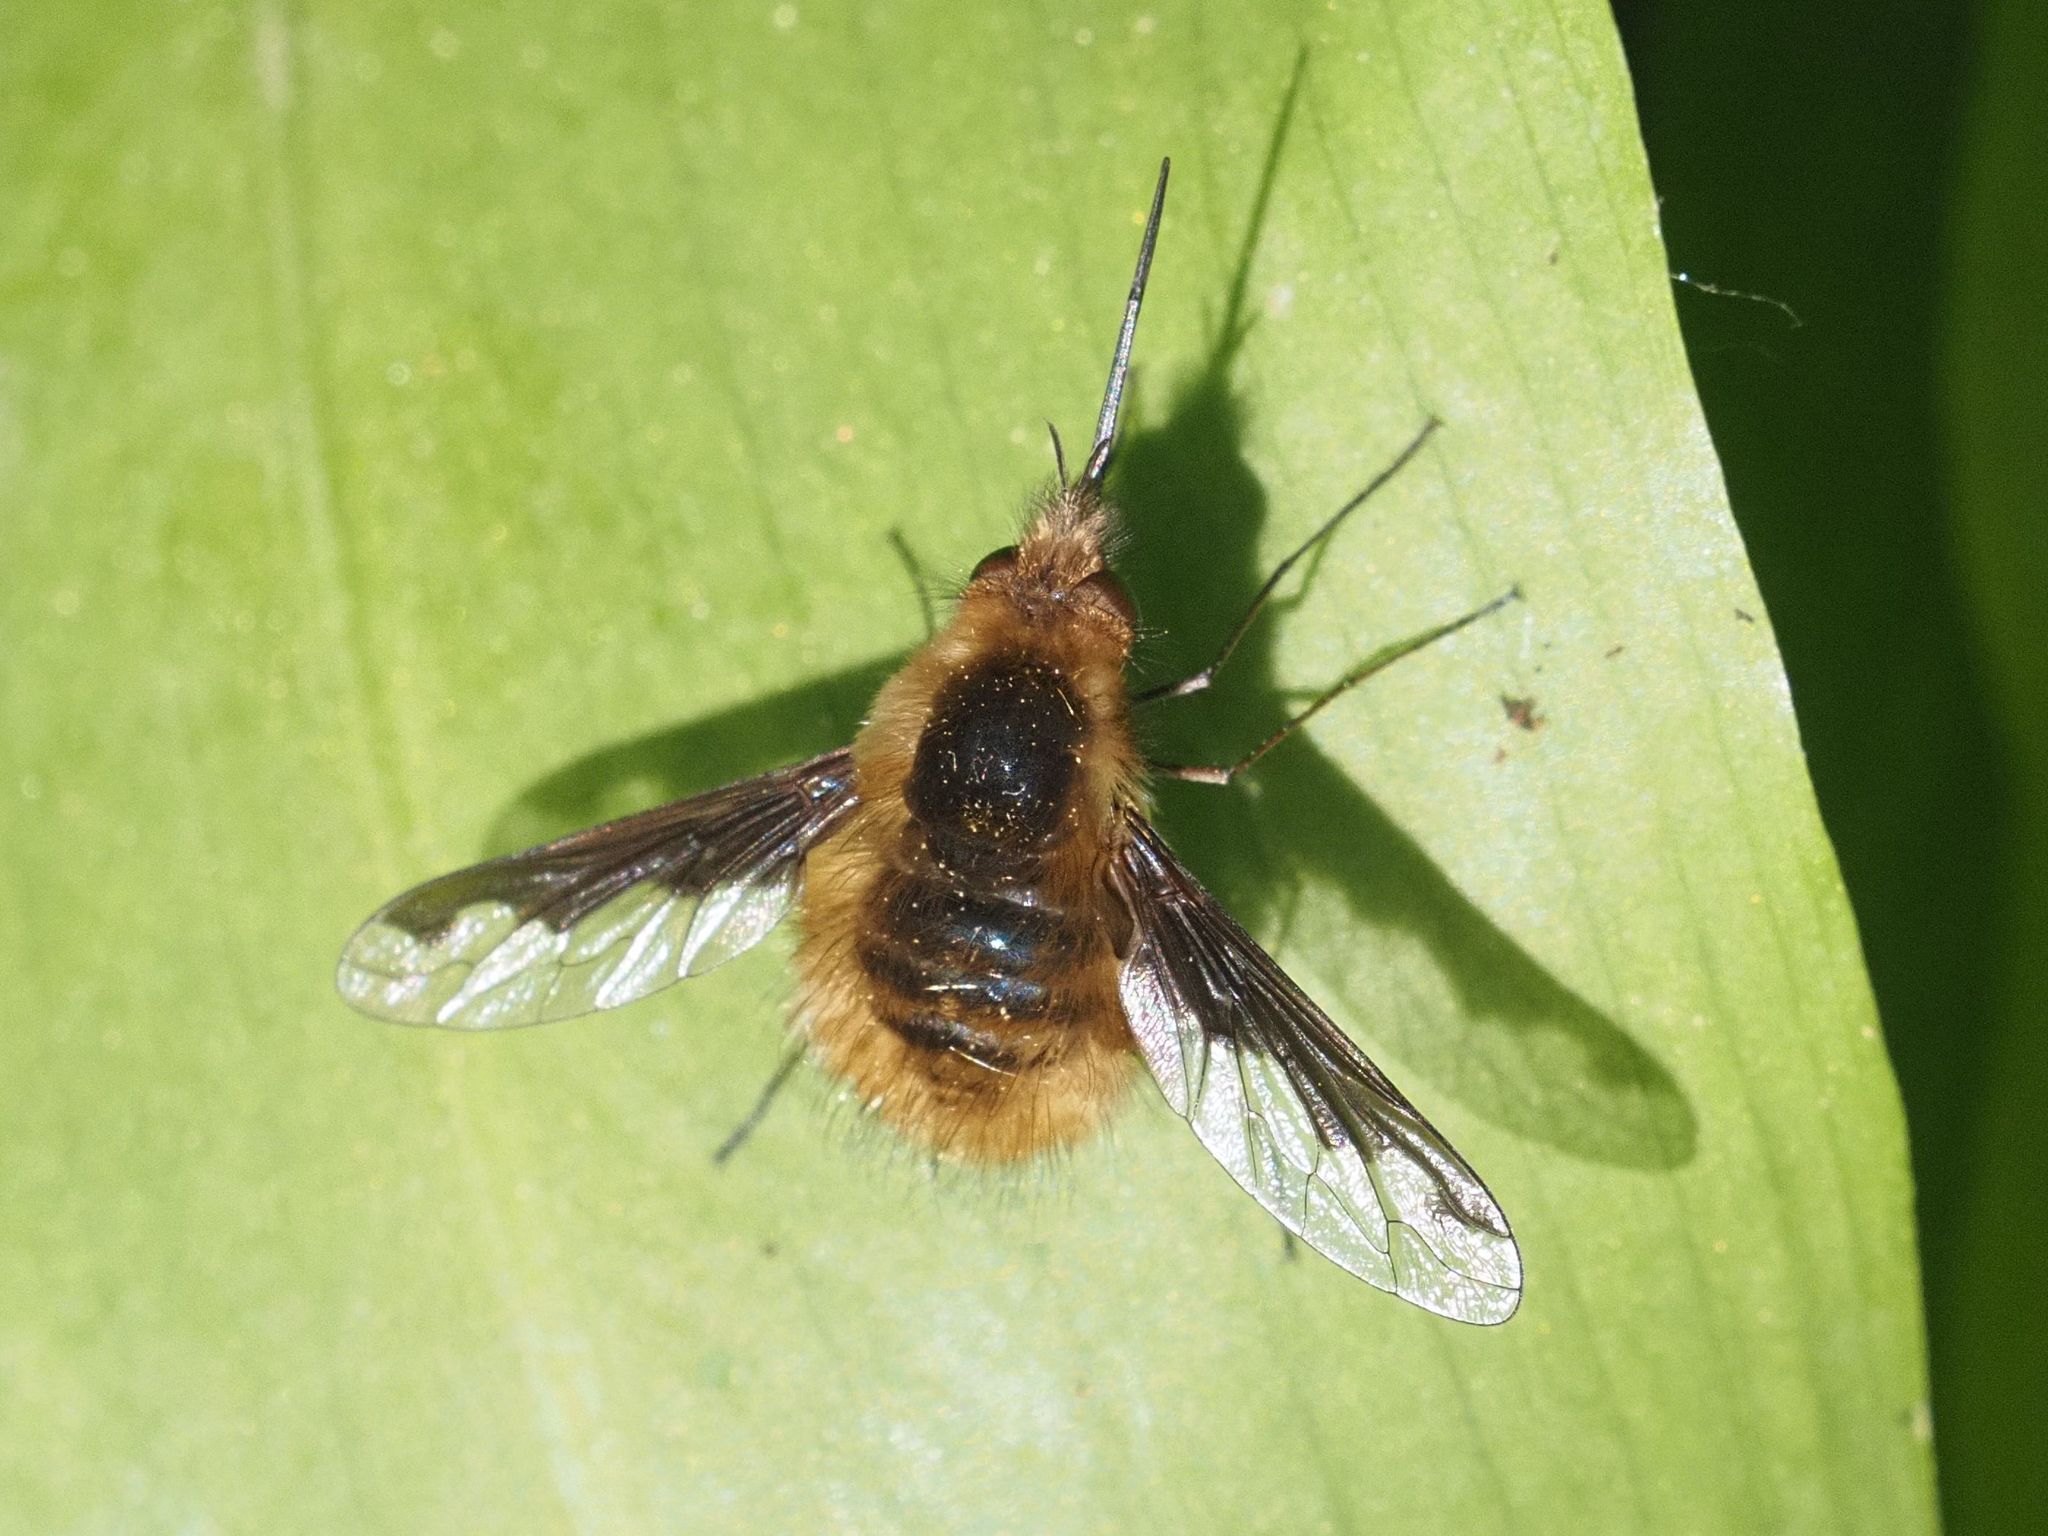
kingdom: Animalia
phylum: Arthropoda
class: Insecta
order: Diptera
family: Bombyliidae
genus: Bombylius
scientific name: Bombylius major
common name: Bee fly
